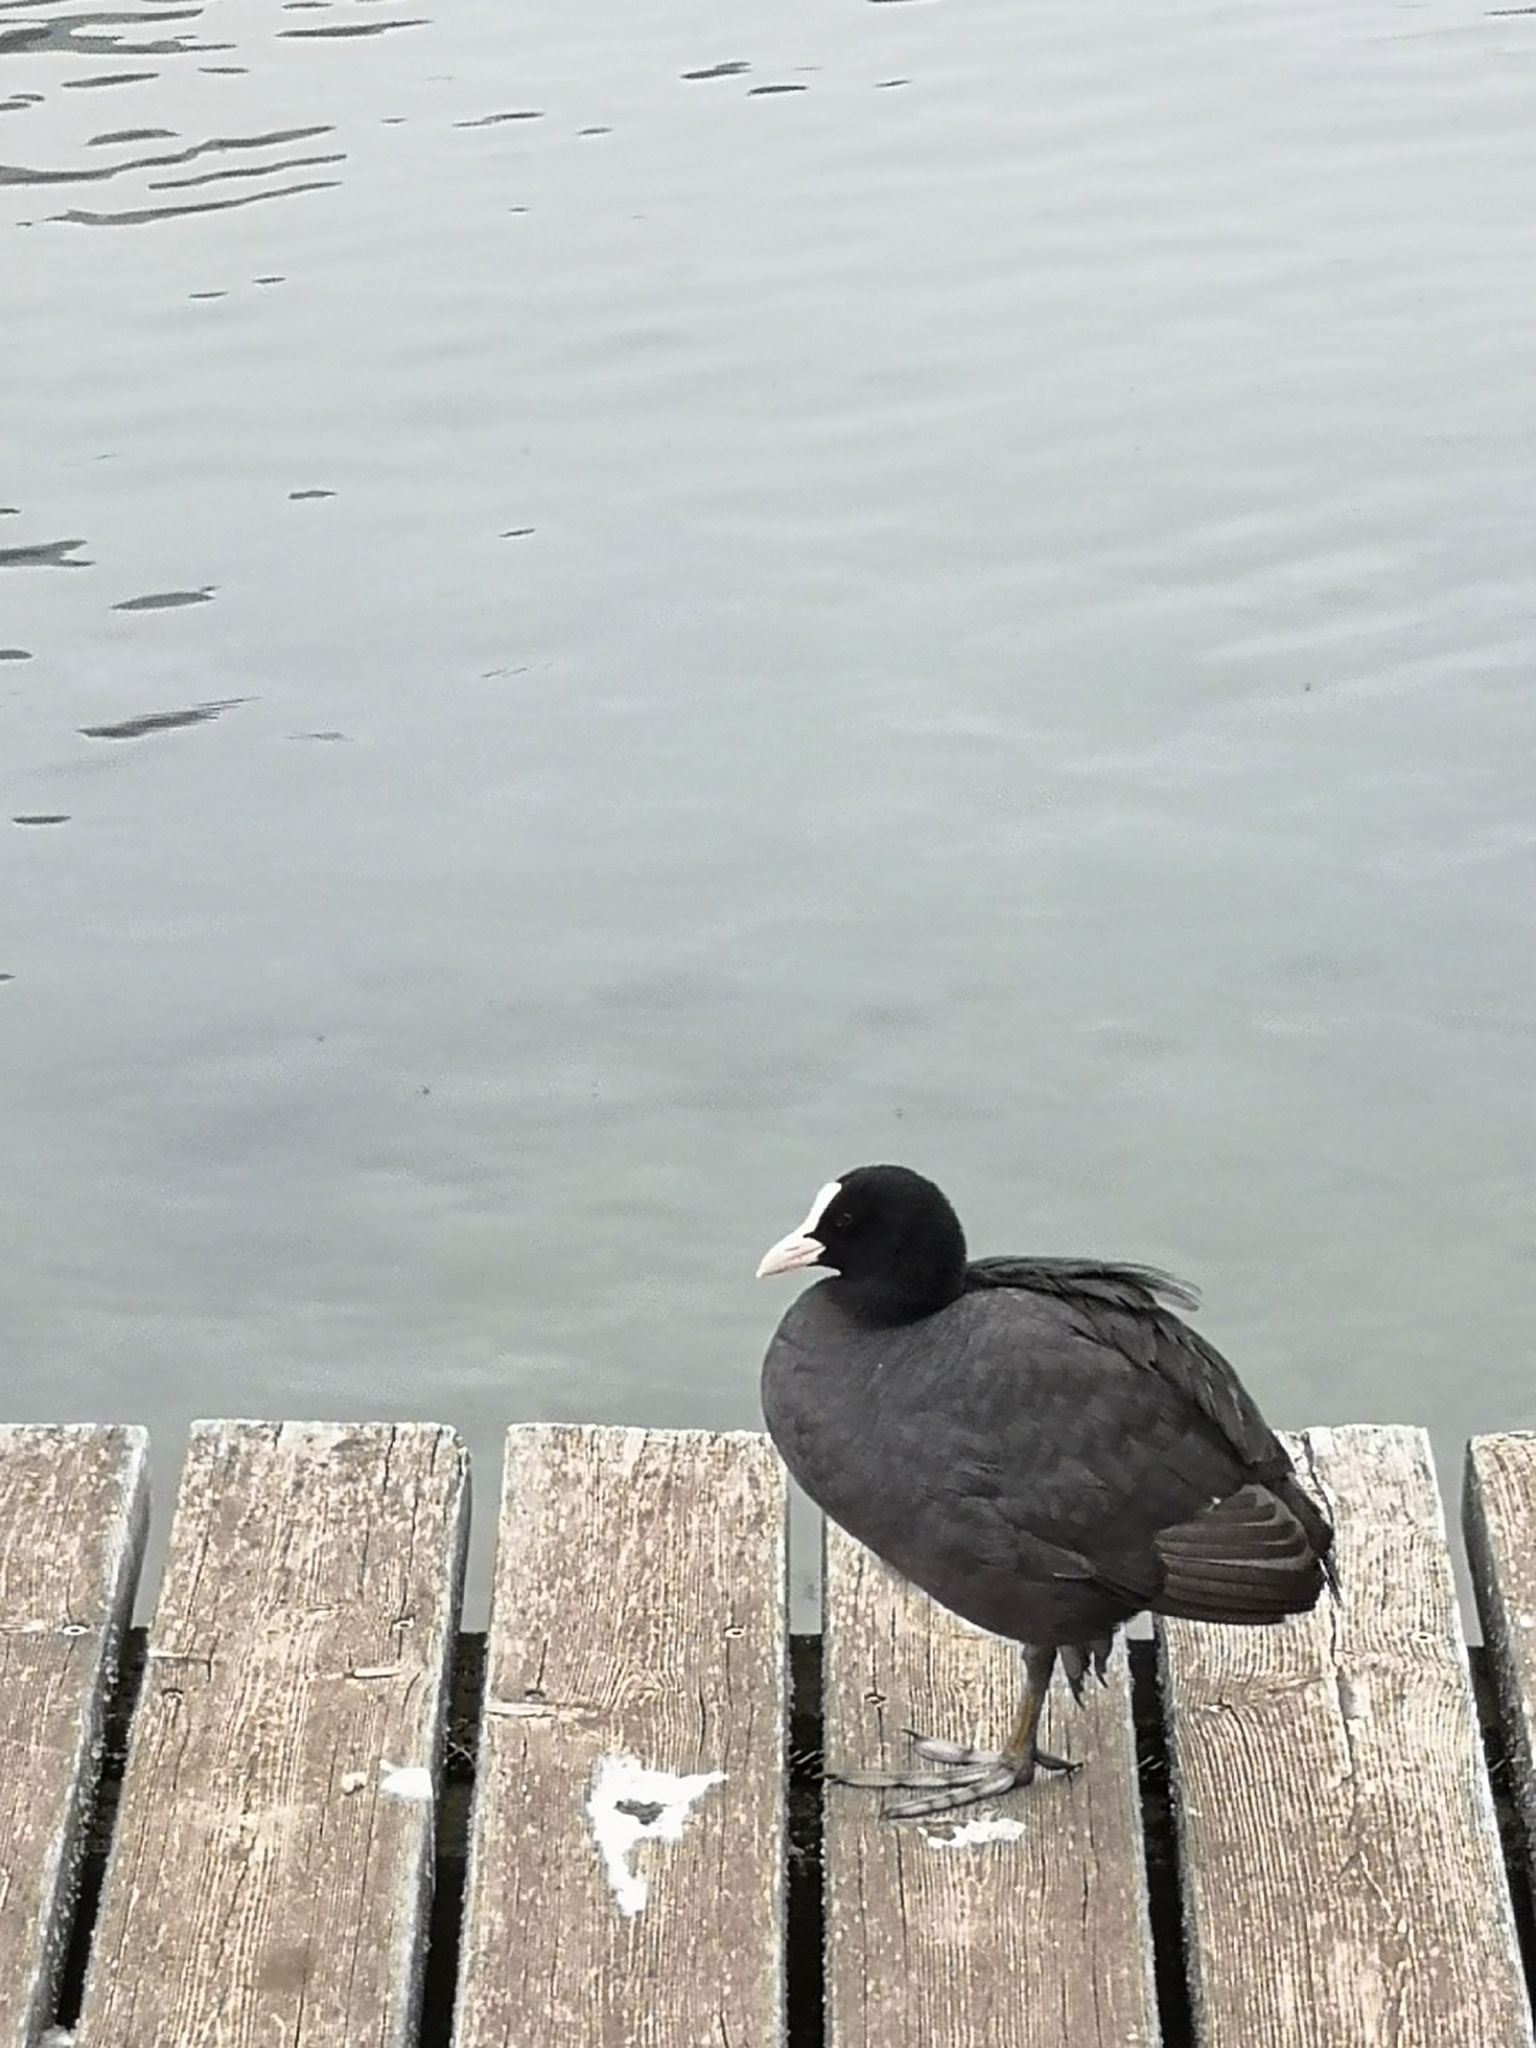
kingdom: Animalia
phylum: Chordata
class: Aves
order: Gruiformes
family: Rallidae
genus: Fulica
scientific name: Fulica atra
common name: Eurasian coot
